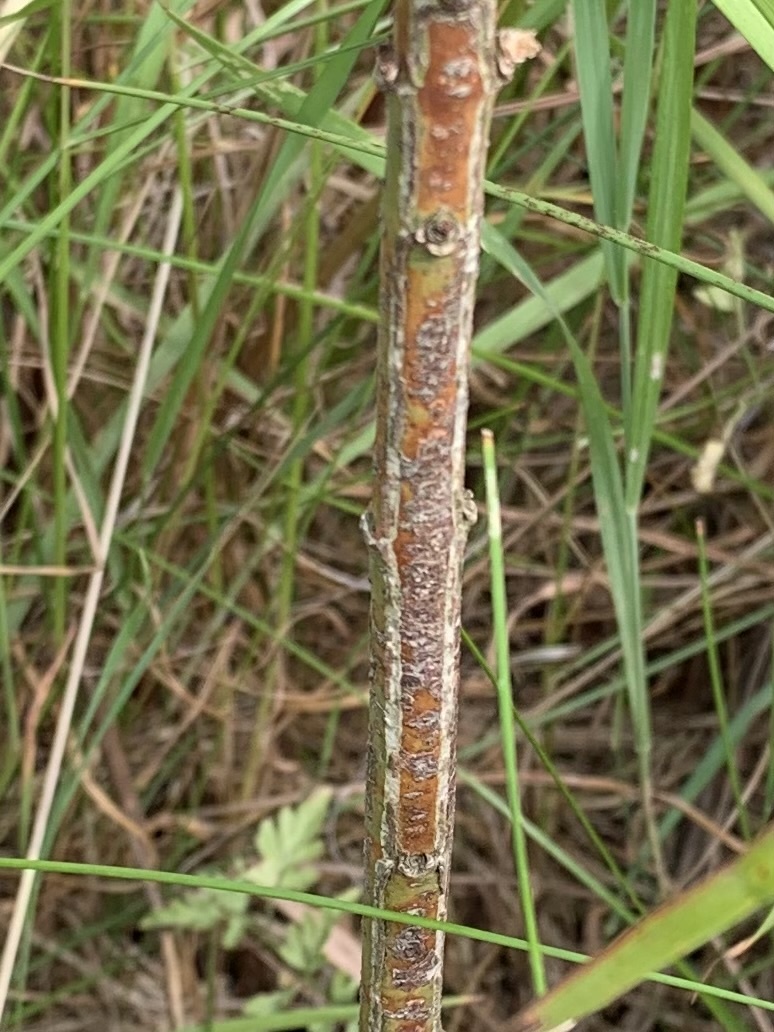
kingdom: Plantae
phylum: Tracheophyta
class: Magnoliopsida
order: Celastrales
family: Celastraceae
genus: Euonymus
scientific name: Euonymus europaeus
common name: Spindle
